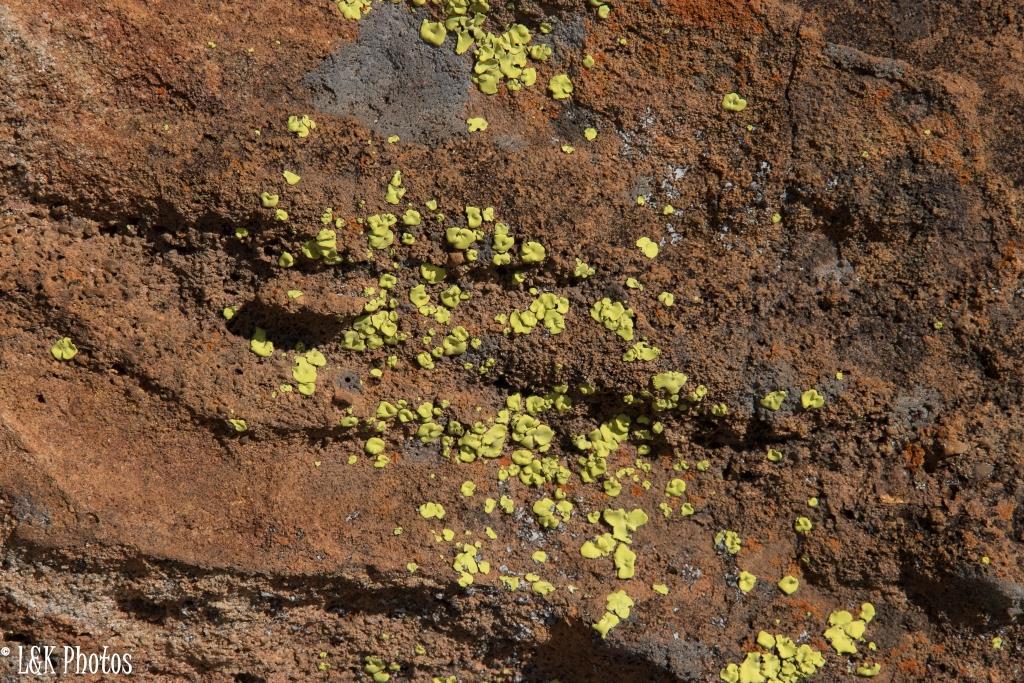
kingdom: Fungi
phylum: Ascomycota
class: Lecanoromycetes
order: Caliciales
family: Caliciaceae
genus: Dermatiscum
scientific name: Dermatiscum thunbergii
